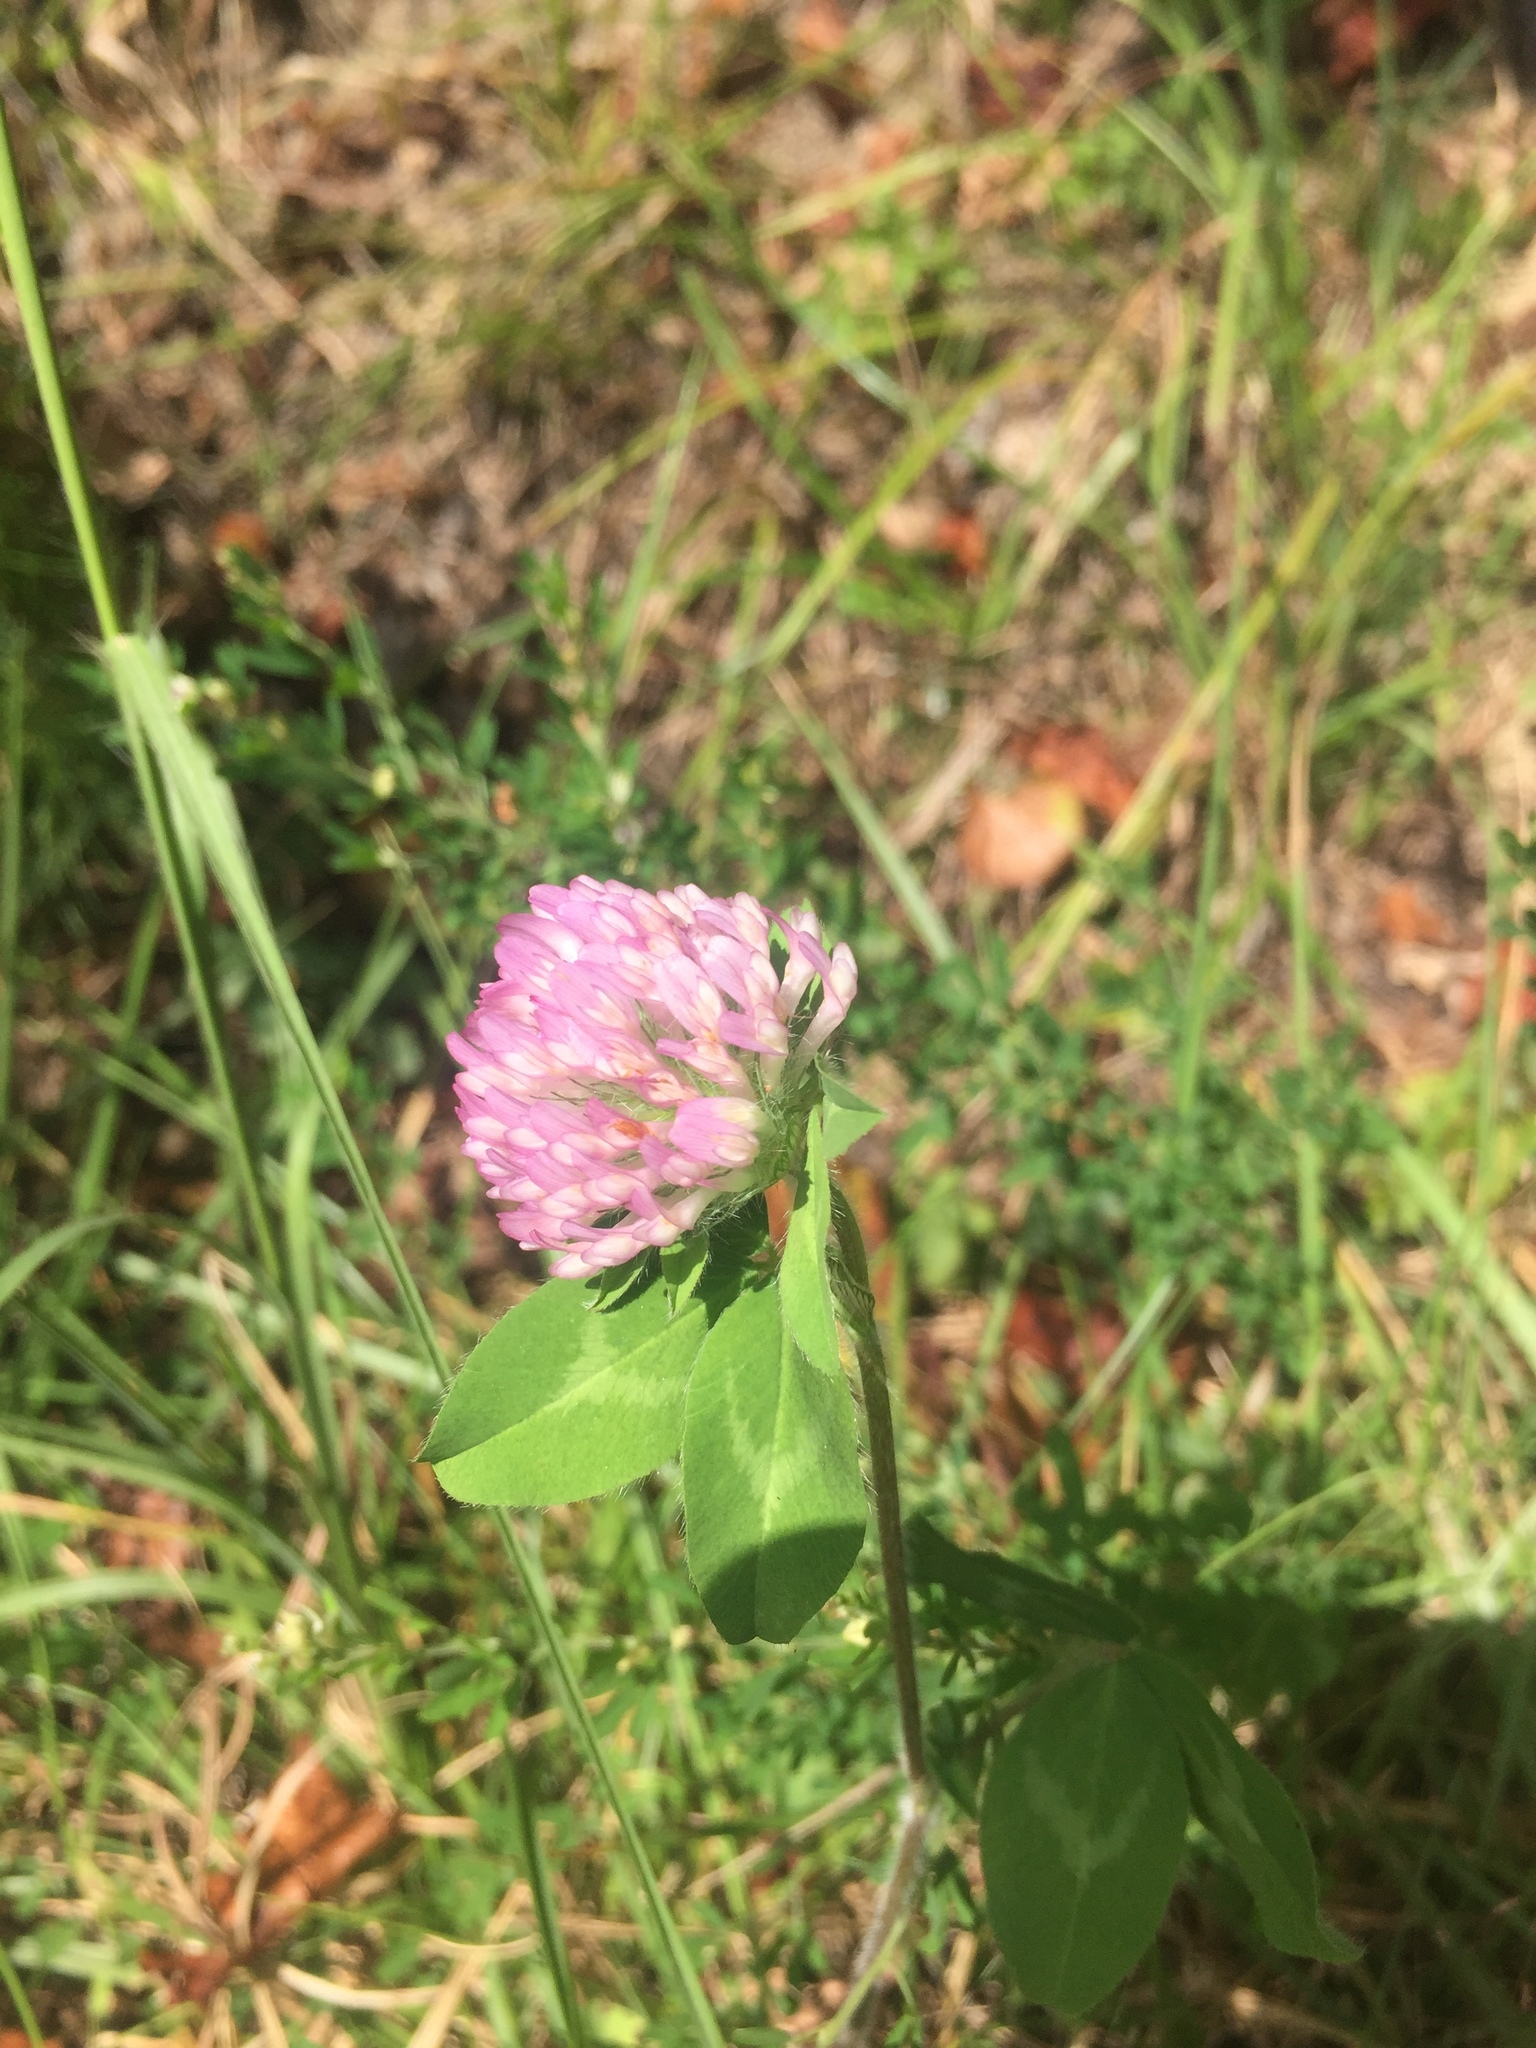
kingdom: Plantae
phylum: Tracheophyta
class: Magnoliopsida
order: Fabales
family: Fabaceae
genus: Trifolium
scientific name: Trifolium pratense
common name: Red clover
